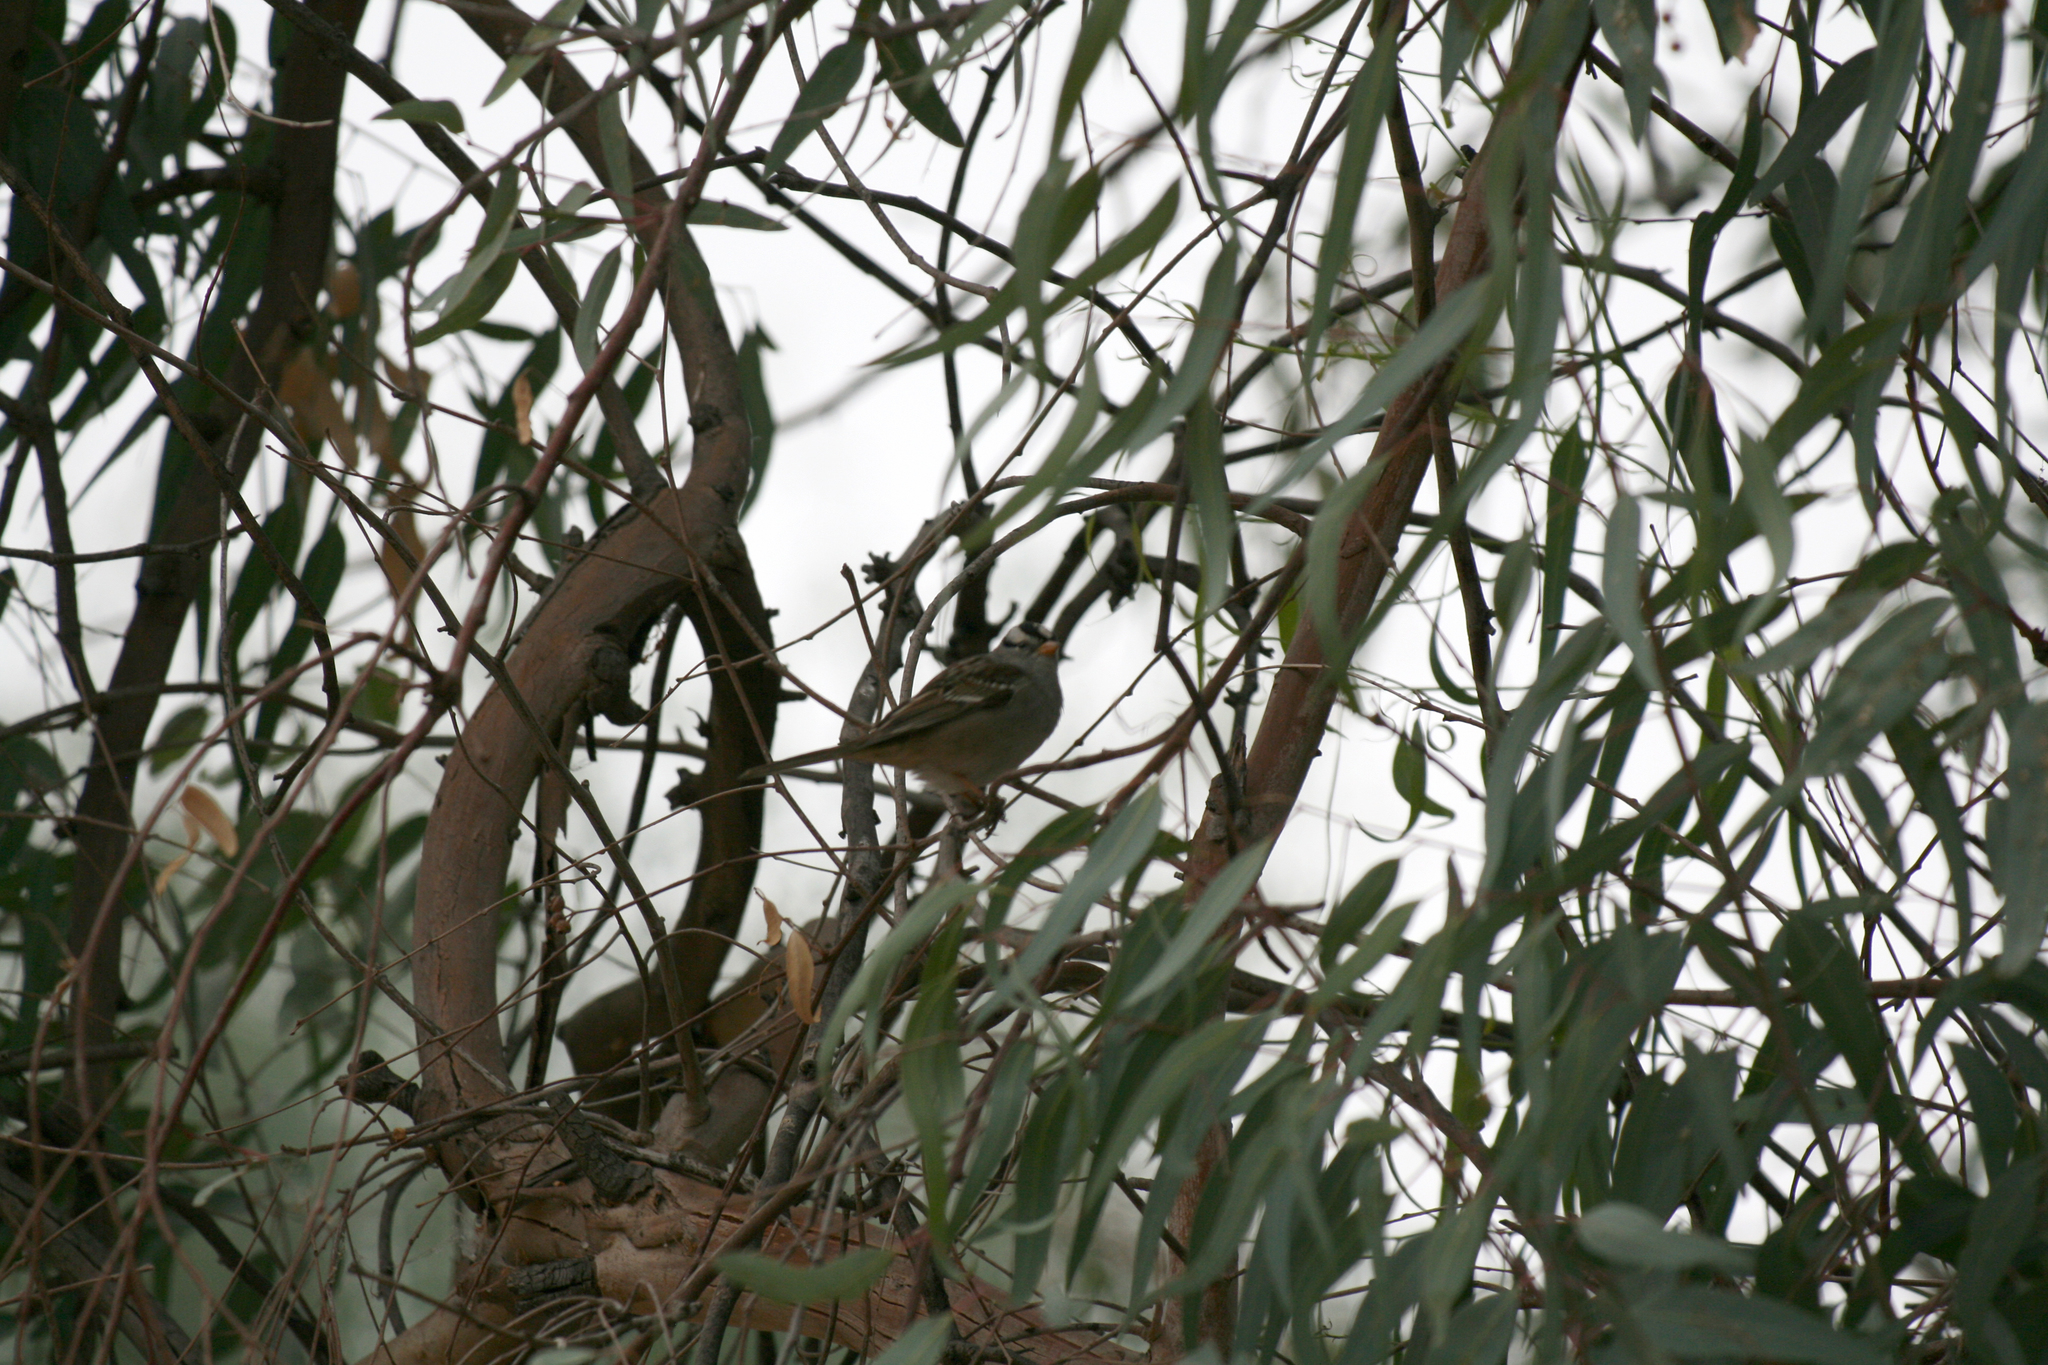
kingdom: Animalia
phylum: Chordata
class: Aves
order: Passeriformes
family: Passerellidae
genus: Zonotrichia
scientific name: Zonotrichia leucophrys
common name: White-crowned sparrow
